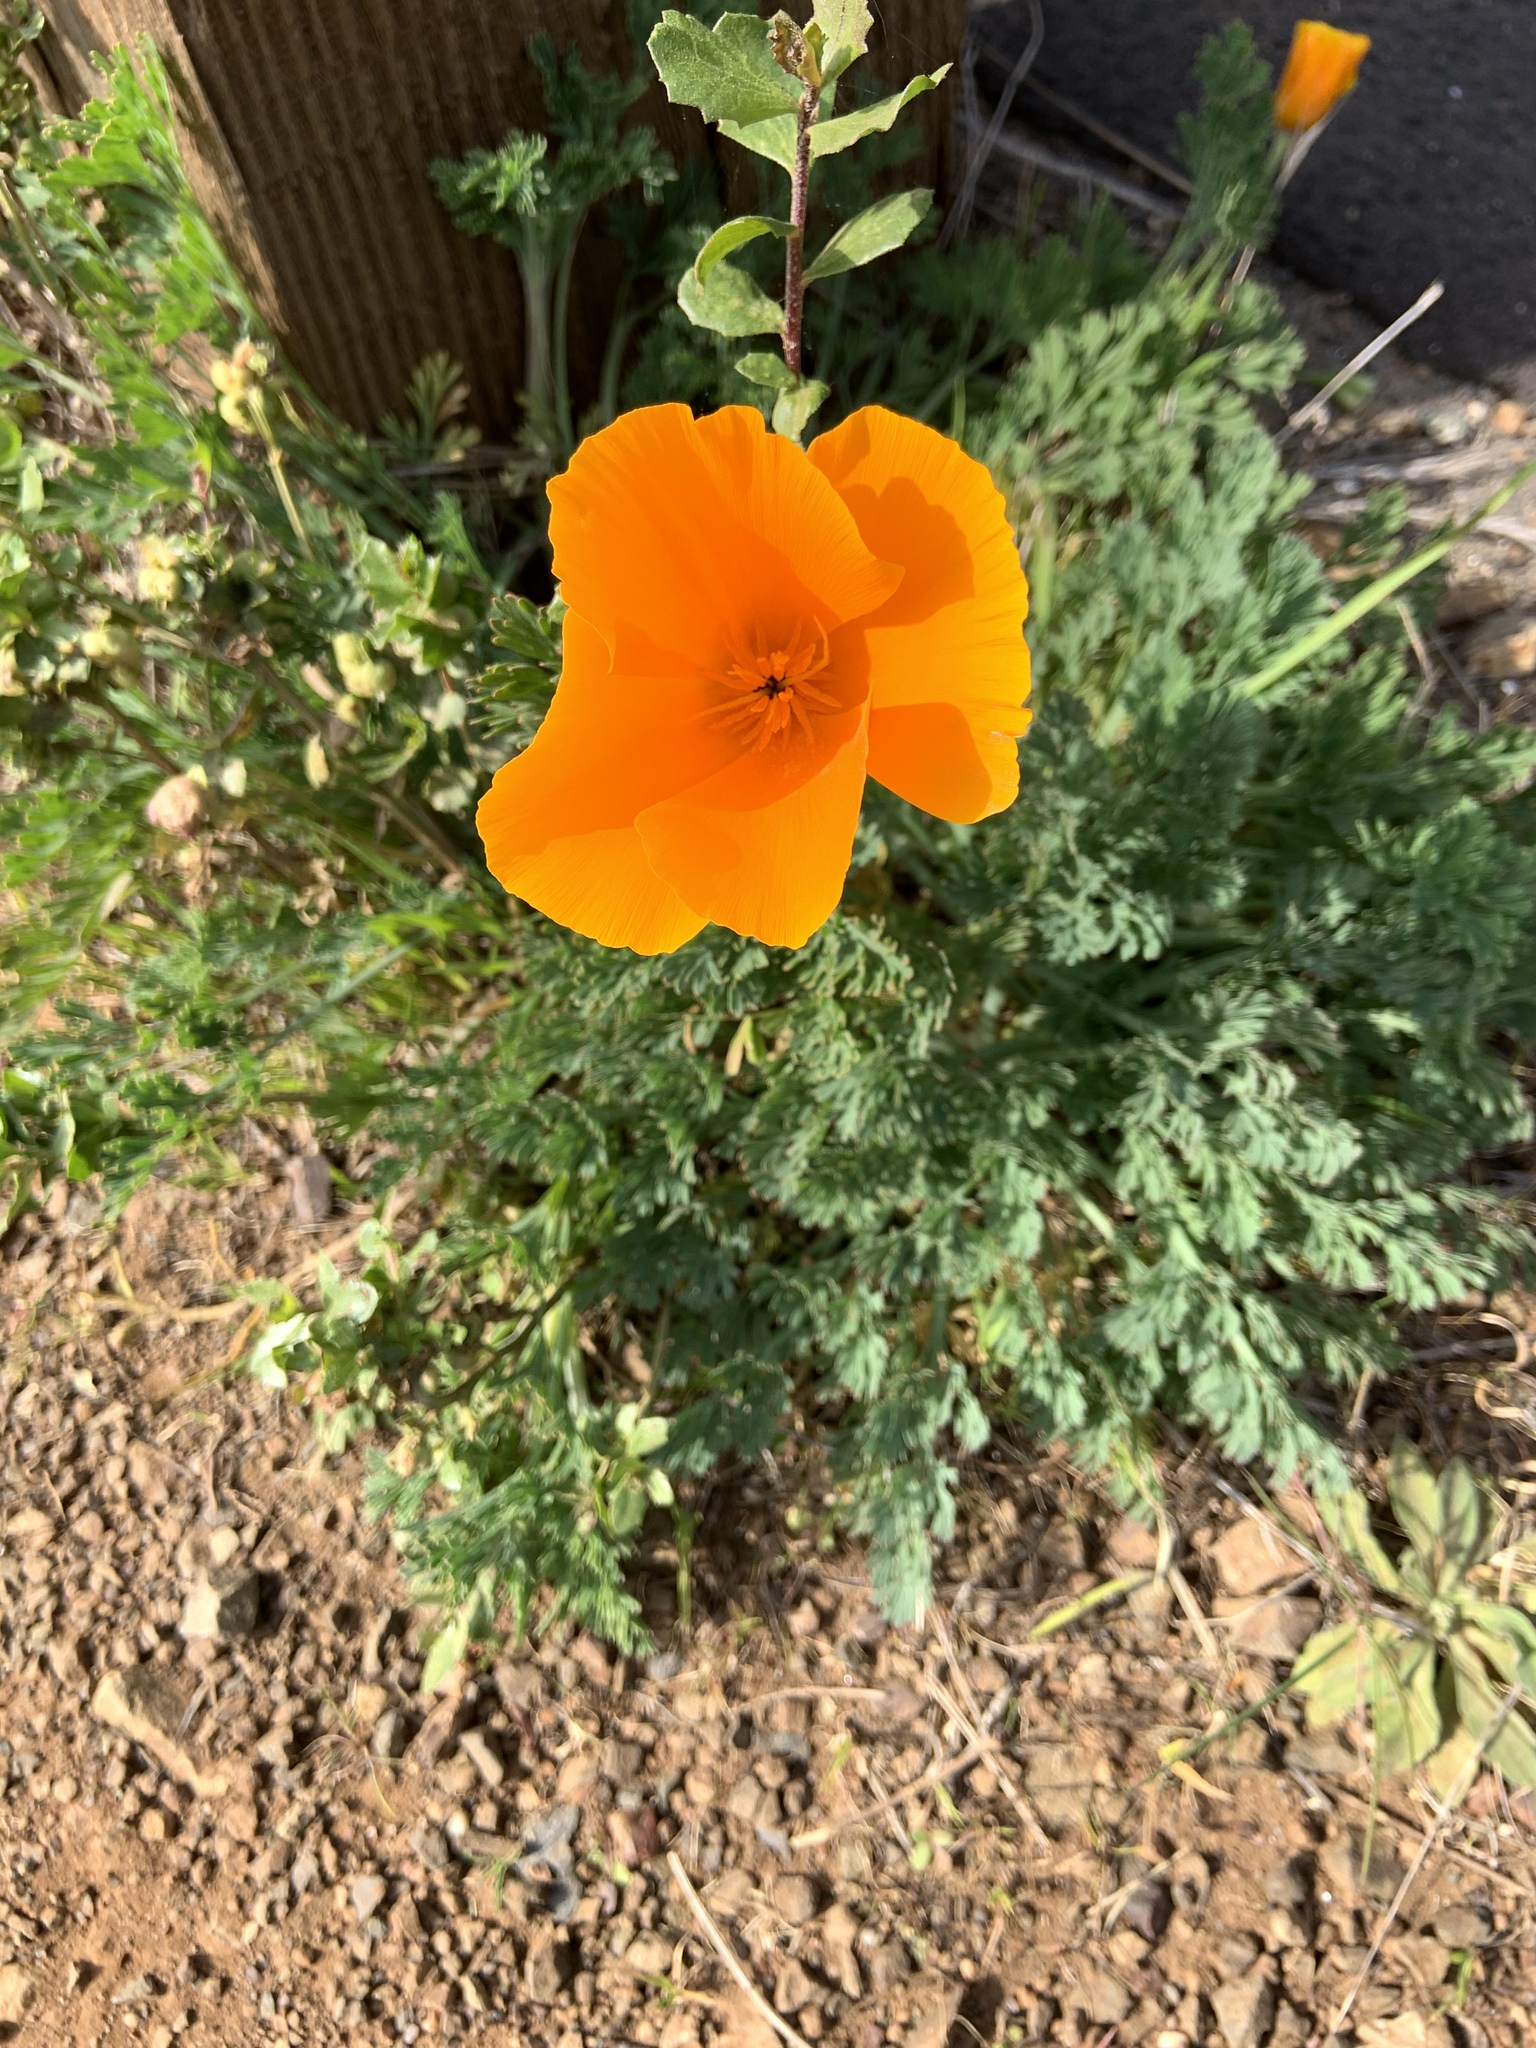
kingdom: Plantae
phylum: Tracheophyta
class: Magnoliopsida
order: Ranunculales
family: Papaveraceae
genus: Eschscholzia
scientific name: Eschscholzia californica
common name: California poppy
